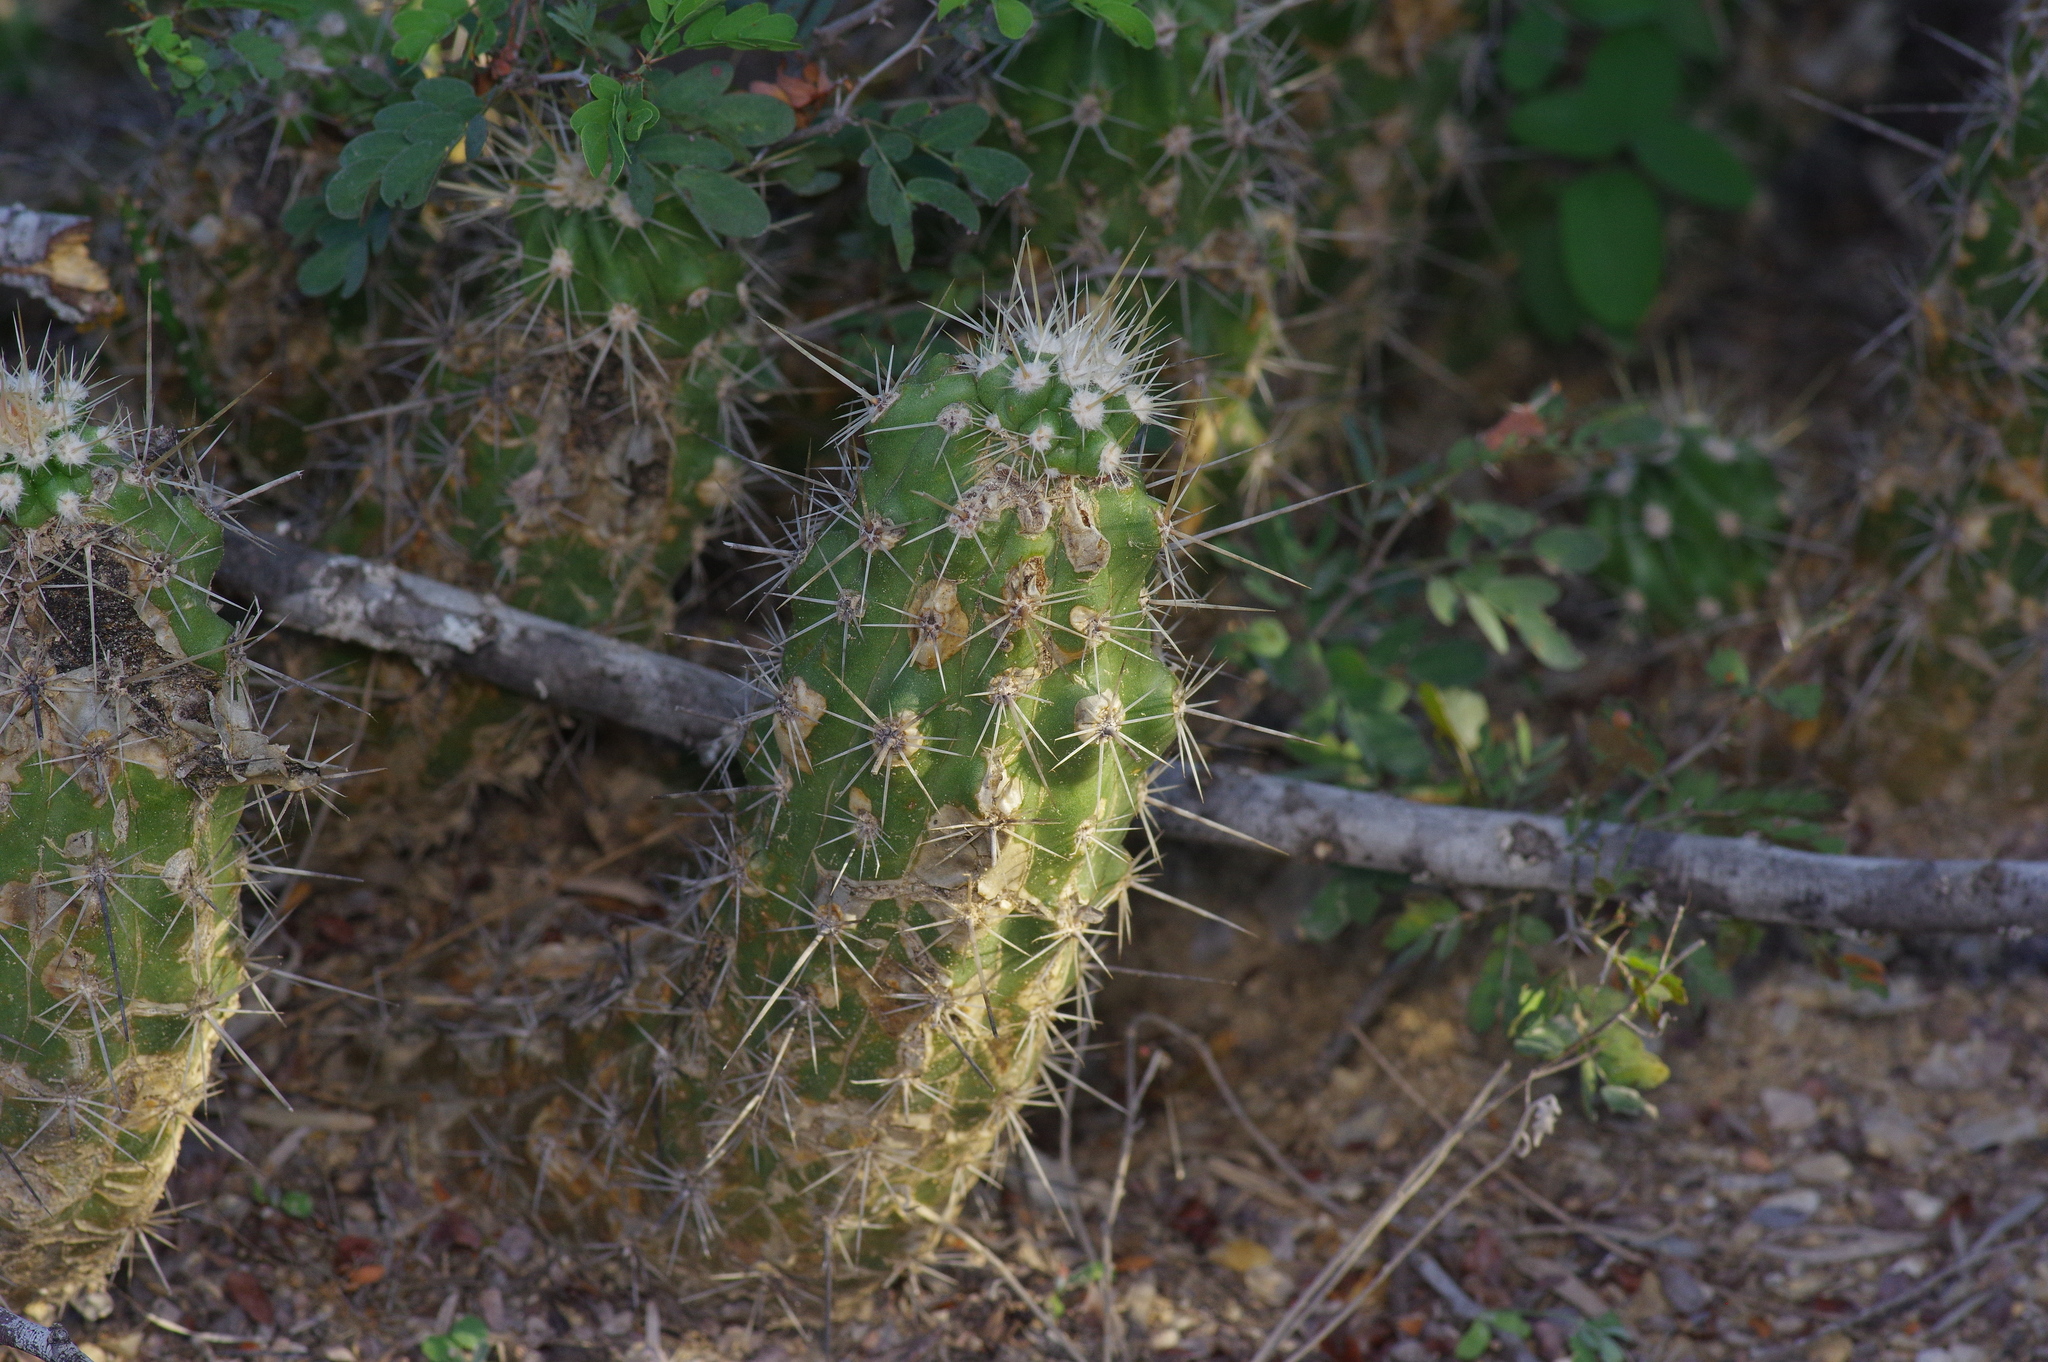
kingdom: Plantae
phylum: Tracheophyta
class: Magnoliopsida
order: Caryophyllales
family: Cactaceae
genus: Echinocereus
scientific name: Echinocereus enneacanthus
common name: Pitaya
